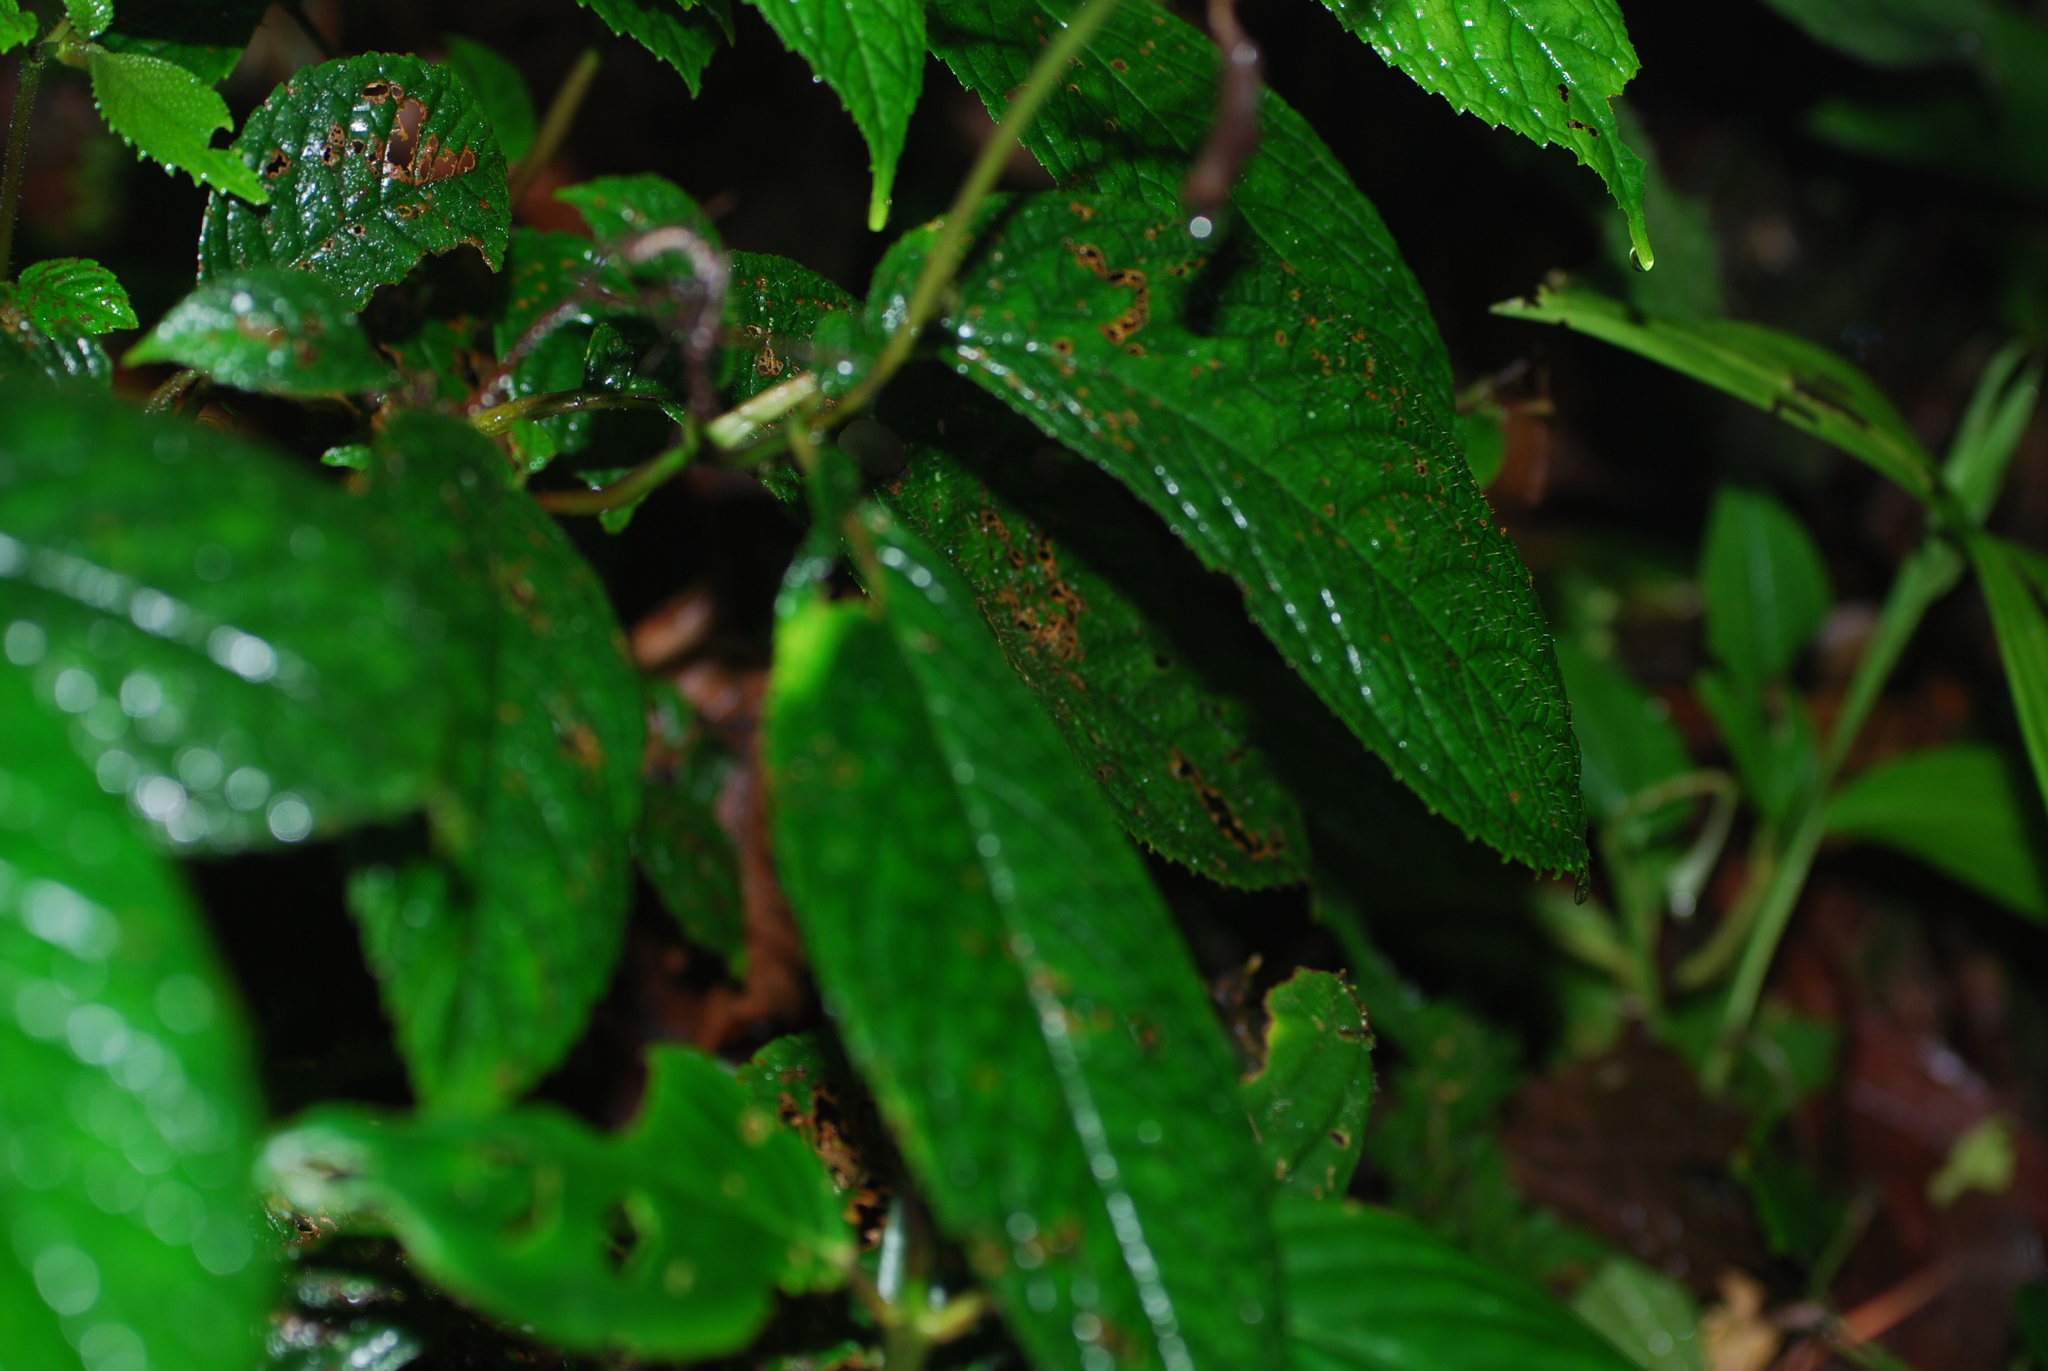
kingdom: Plantae
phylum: Tracheophyta
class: Magnoliopsida
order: Lamiales
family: Gesneriaceae
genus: Monopyle
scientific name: Monopyle maxonii
